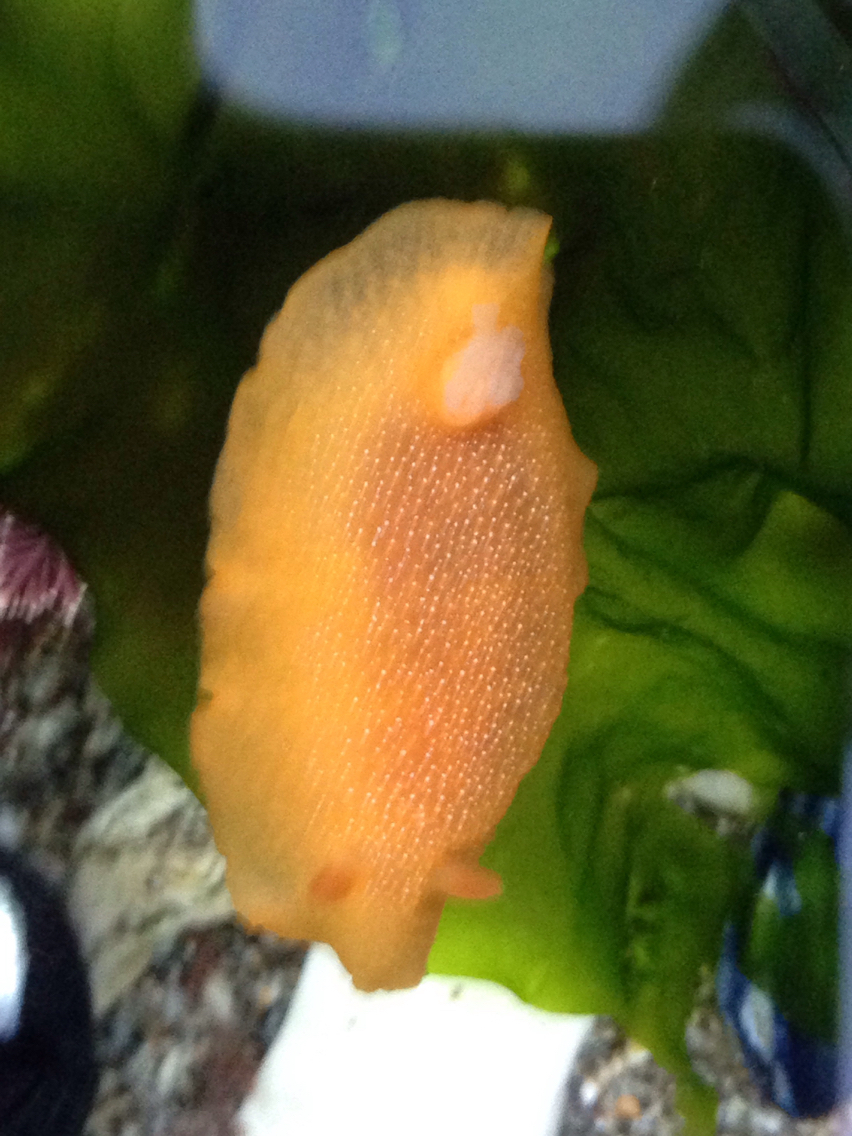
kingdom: Animalia
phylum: Mollusca
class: Gastropoda
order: Nudibranchia
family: Dendrodorididae
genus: Doriopsilla
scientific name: Doriopsilla albopunctata
